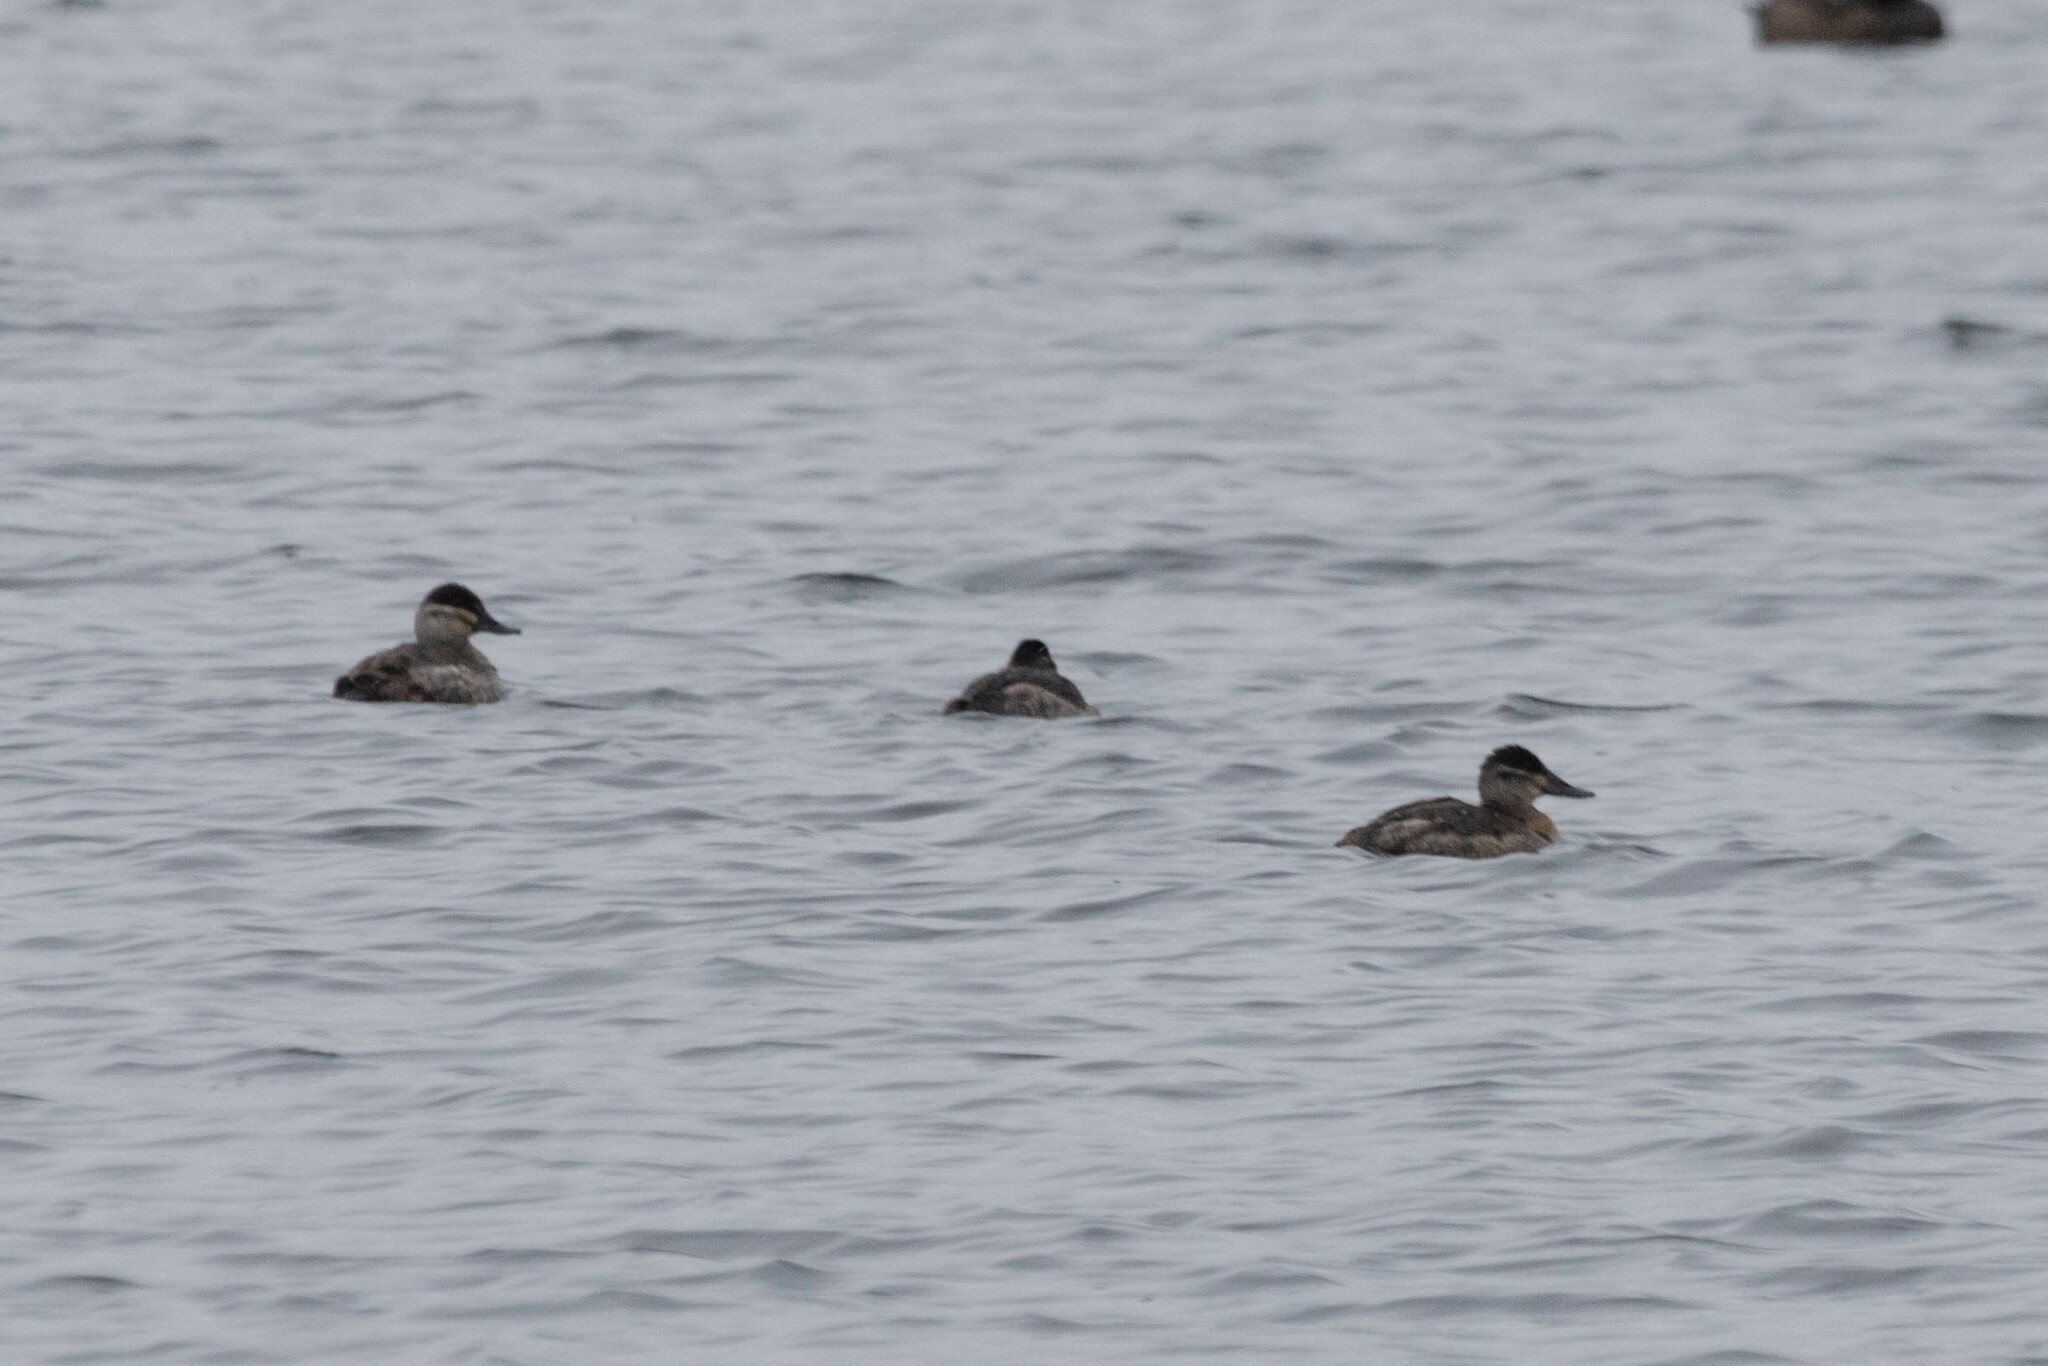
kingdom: Animalia
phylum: Chordata
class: Aves
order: Anseriformes
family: Anatidae
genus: Oxyura
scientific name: Oxyura jamaicensis
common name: Ruddy duck
